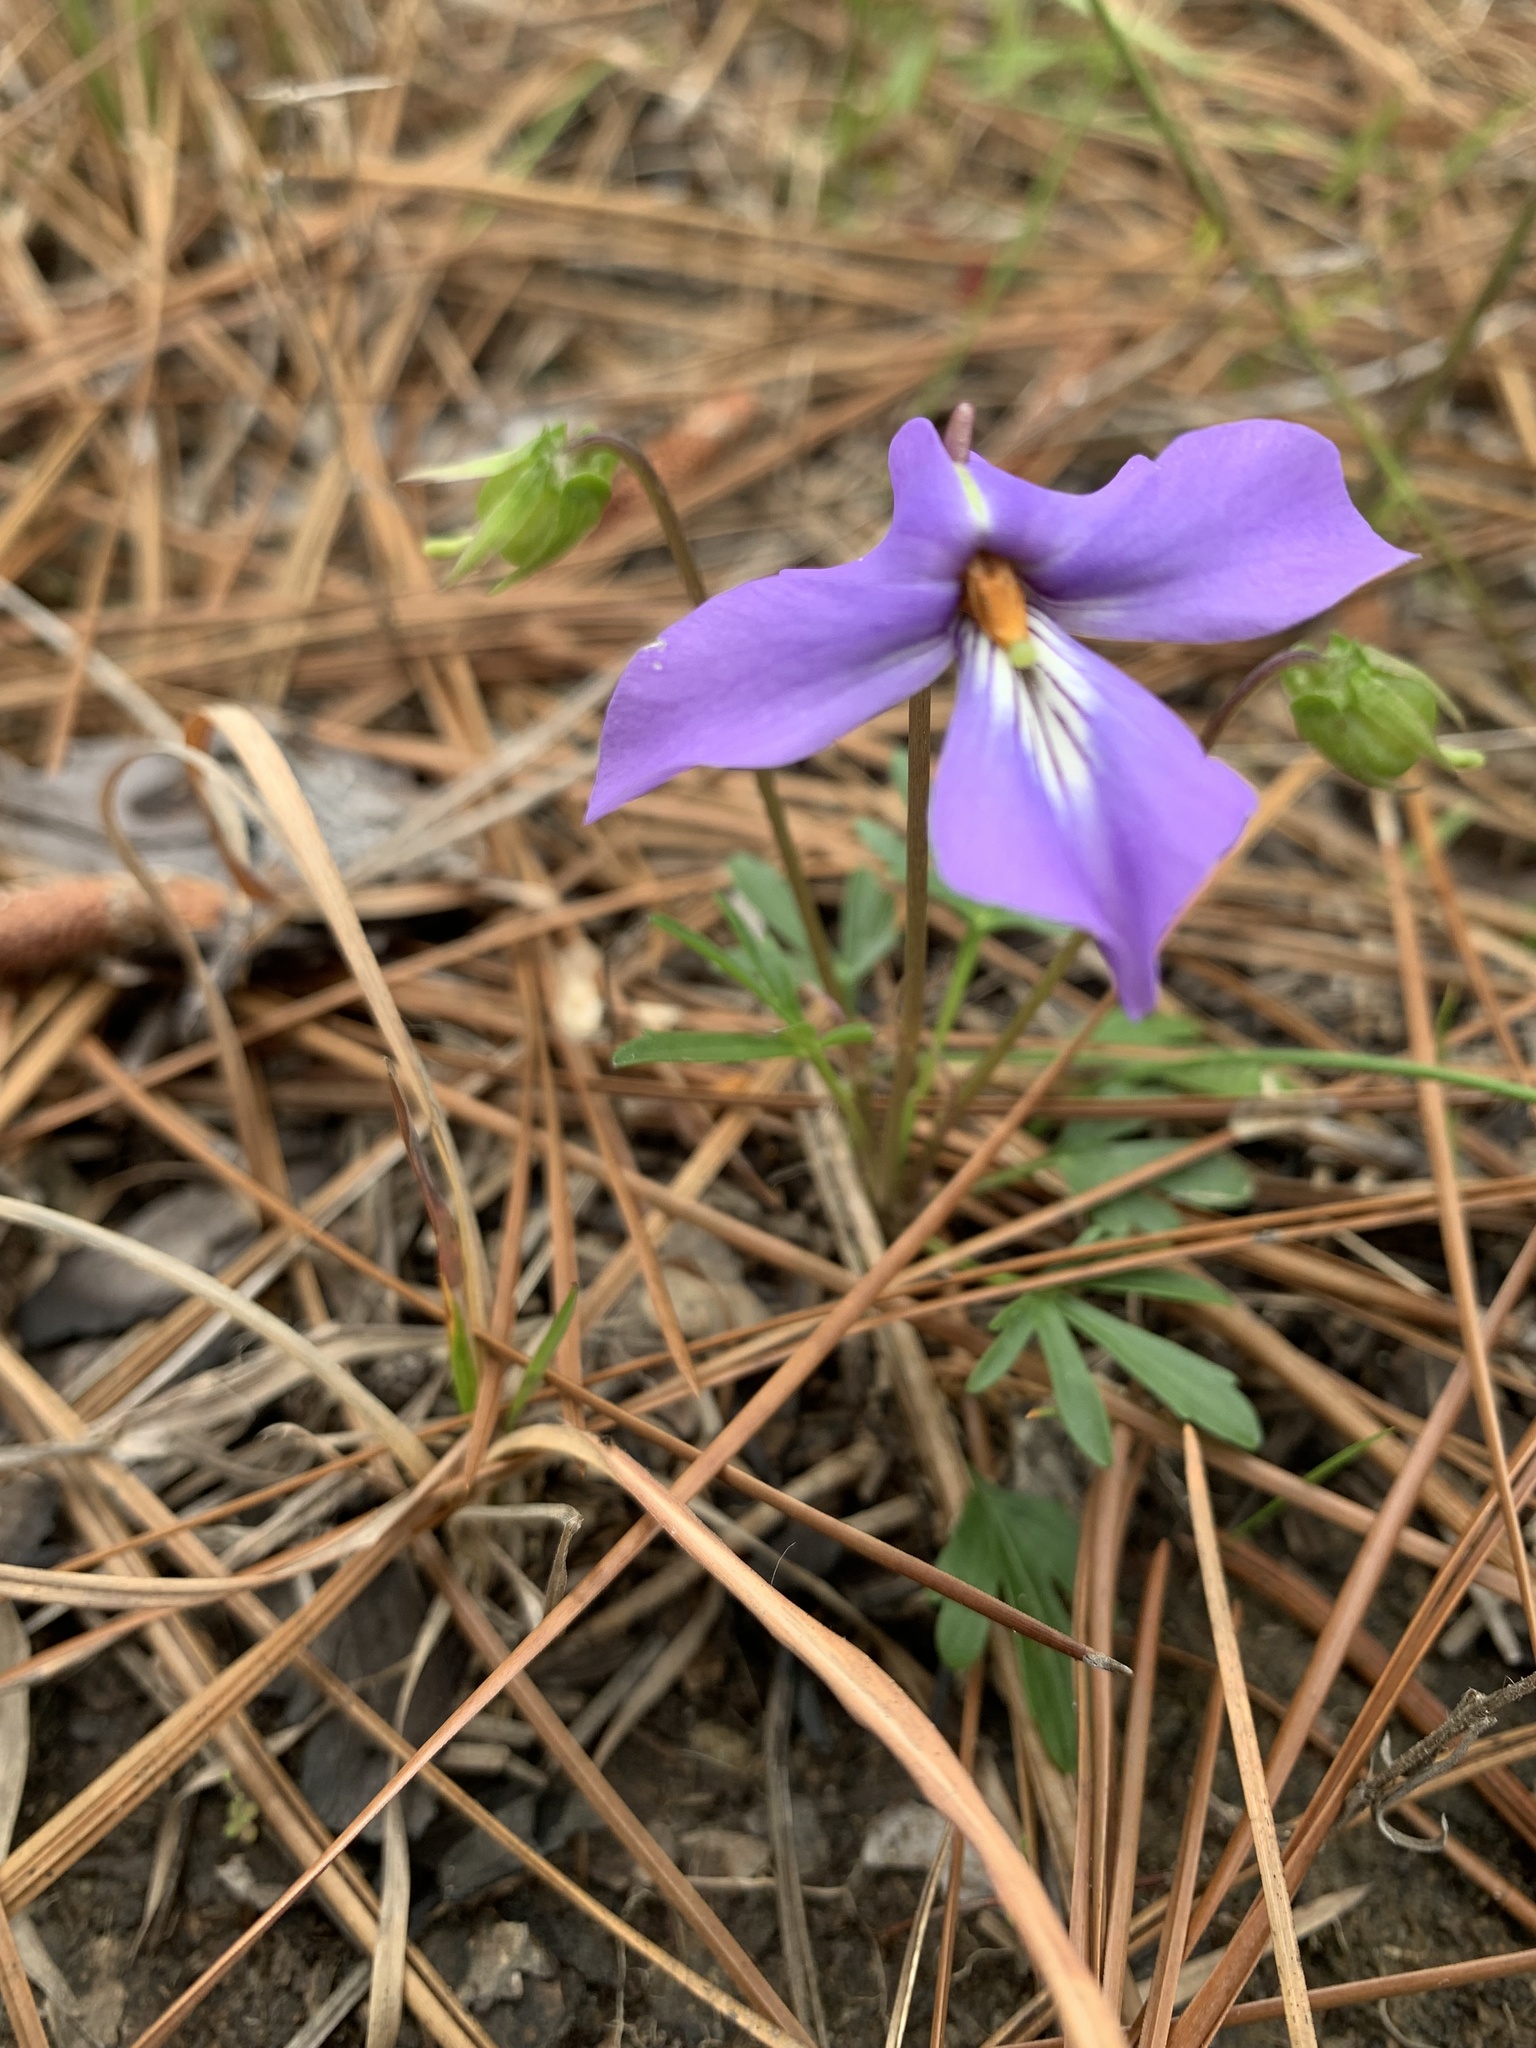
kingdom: Plantae
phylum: Tracheophyta
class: Magnoliopsida
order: Malpighiales
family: Violaceae
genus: Viola
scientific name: Viola pedata
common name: Pansy violet
